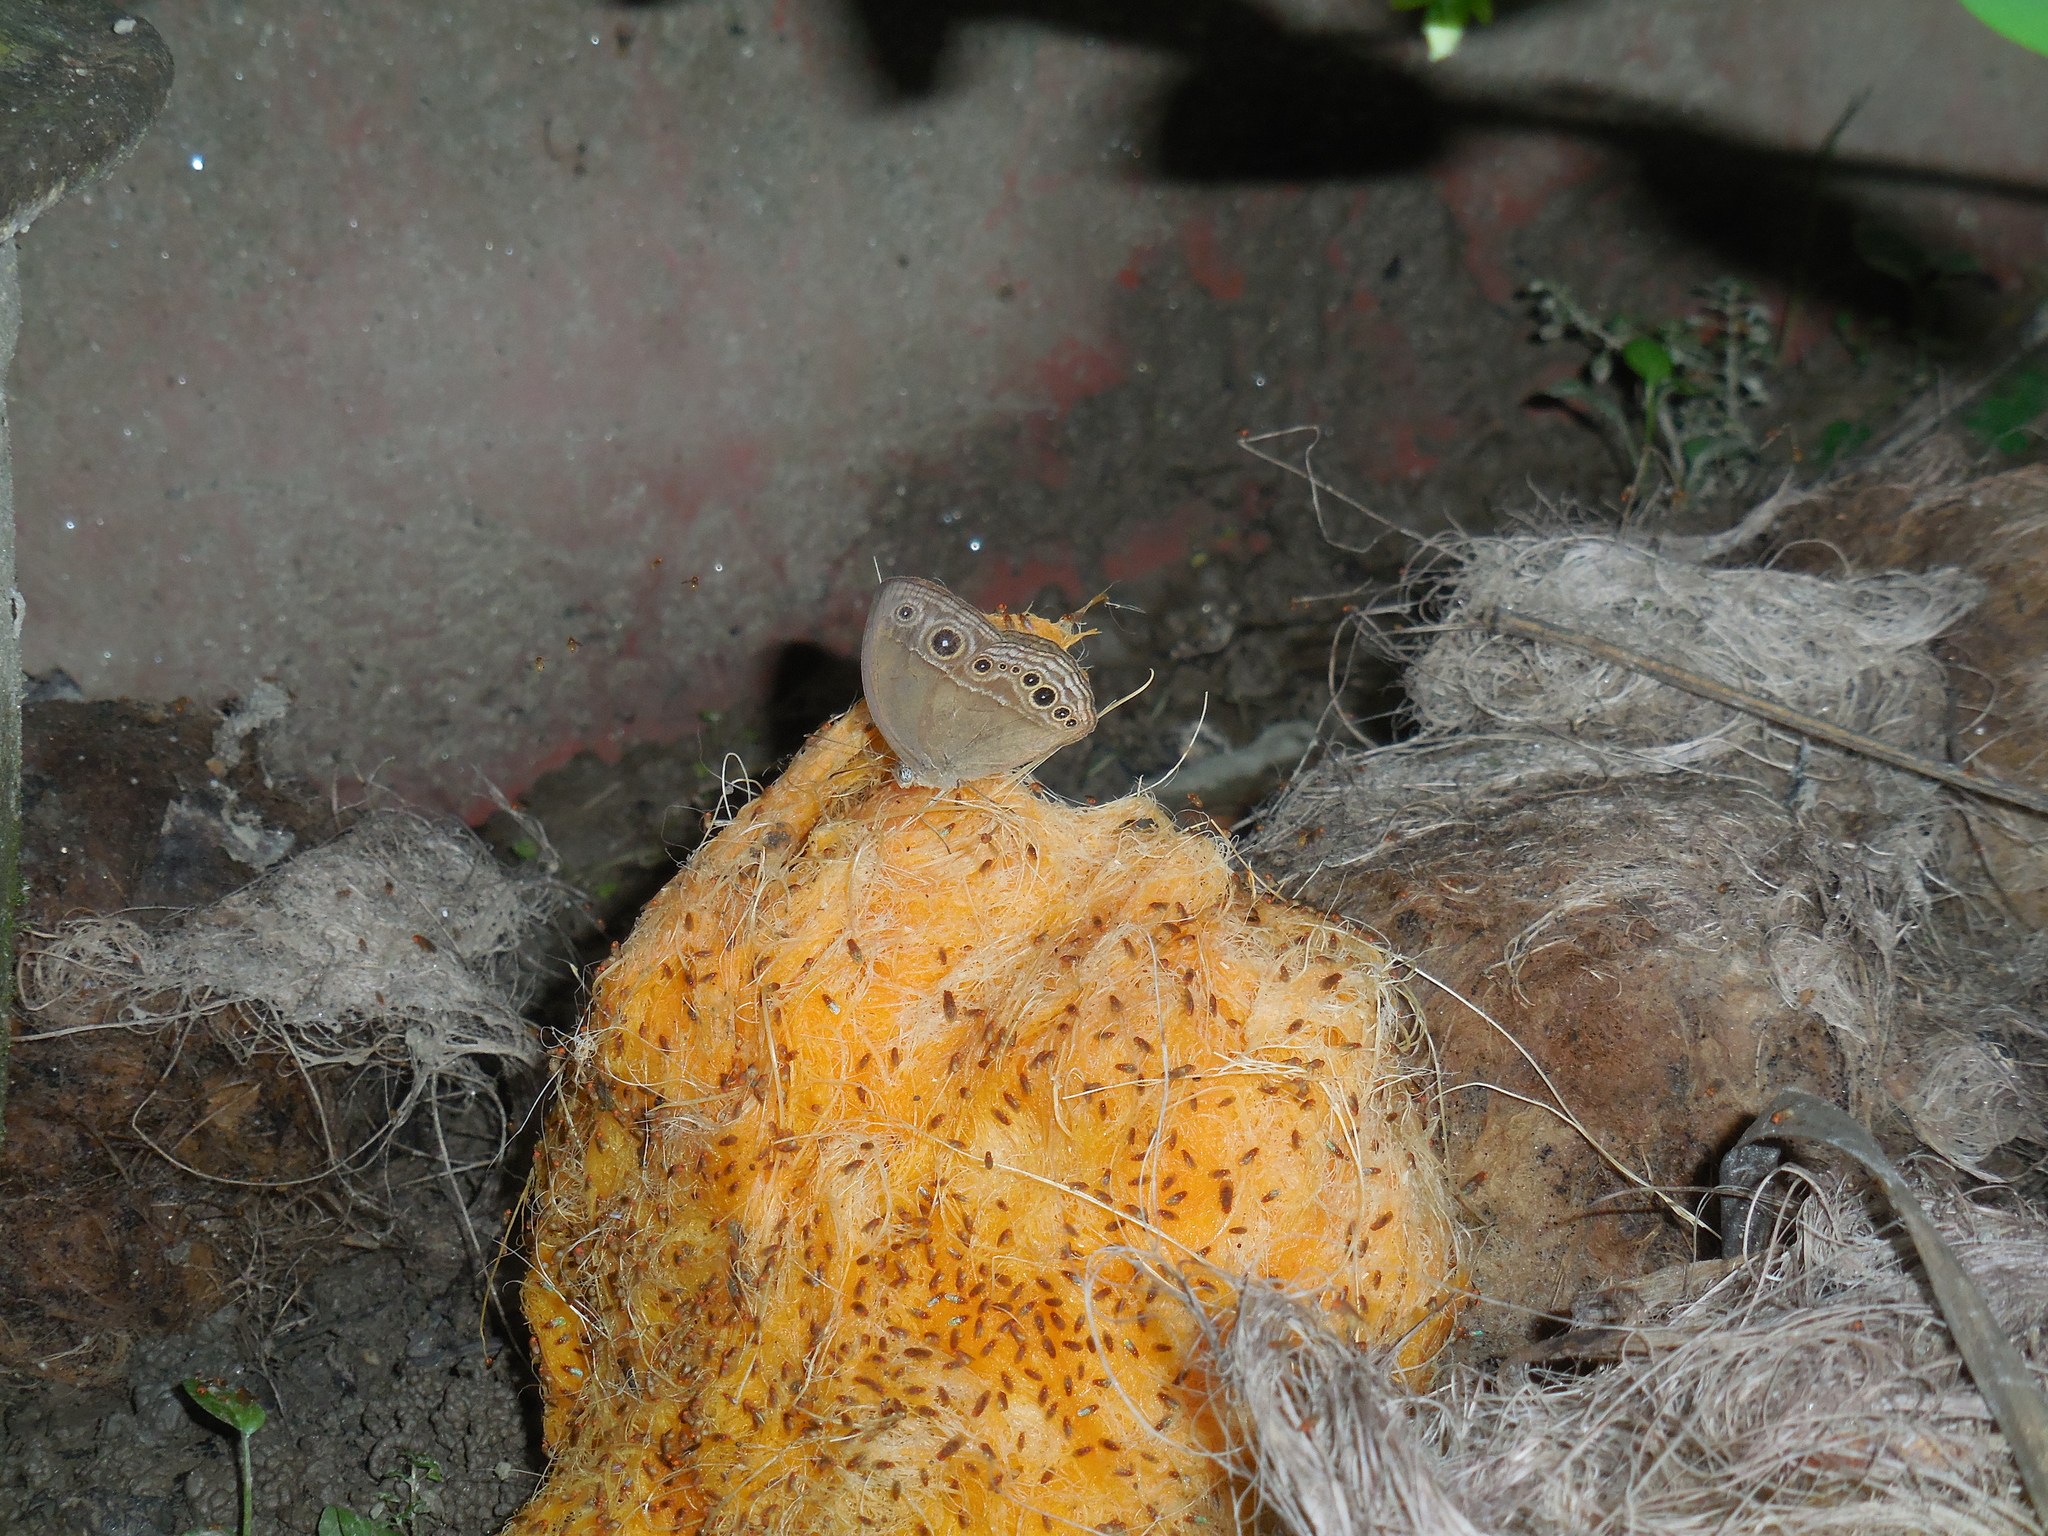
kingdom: Animalia
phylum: Arthropoda
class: Insecta
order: Lepidoptera
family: Nymphalidae
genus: Mycalesis
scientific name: Mycalesis mineus
